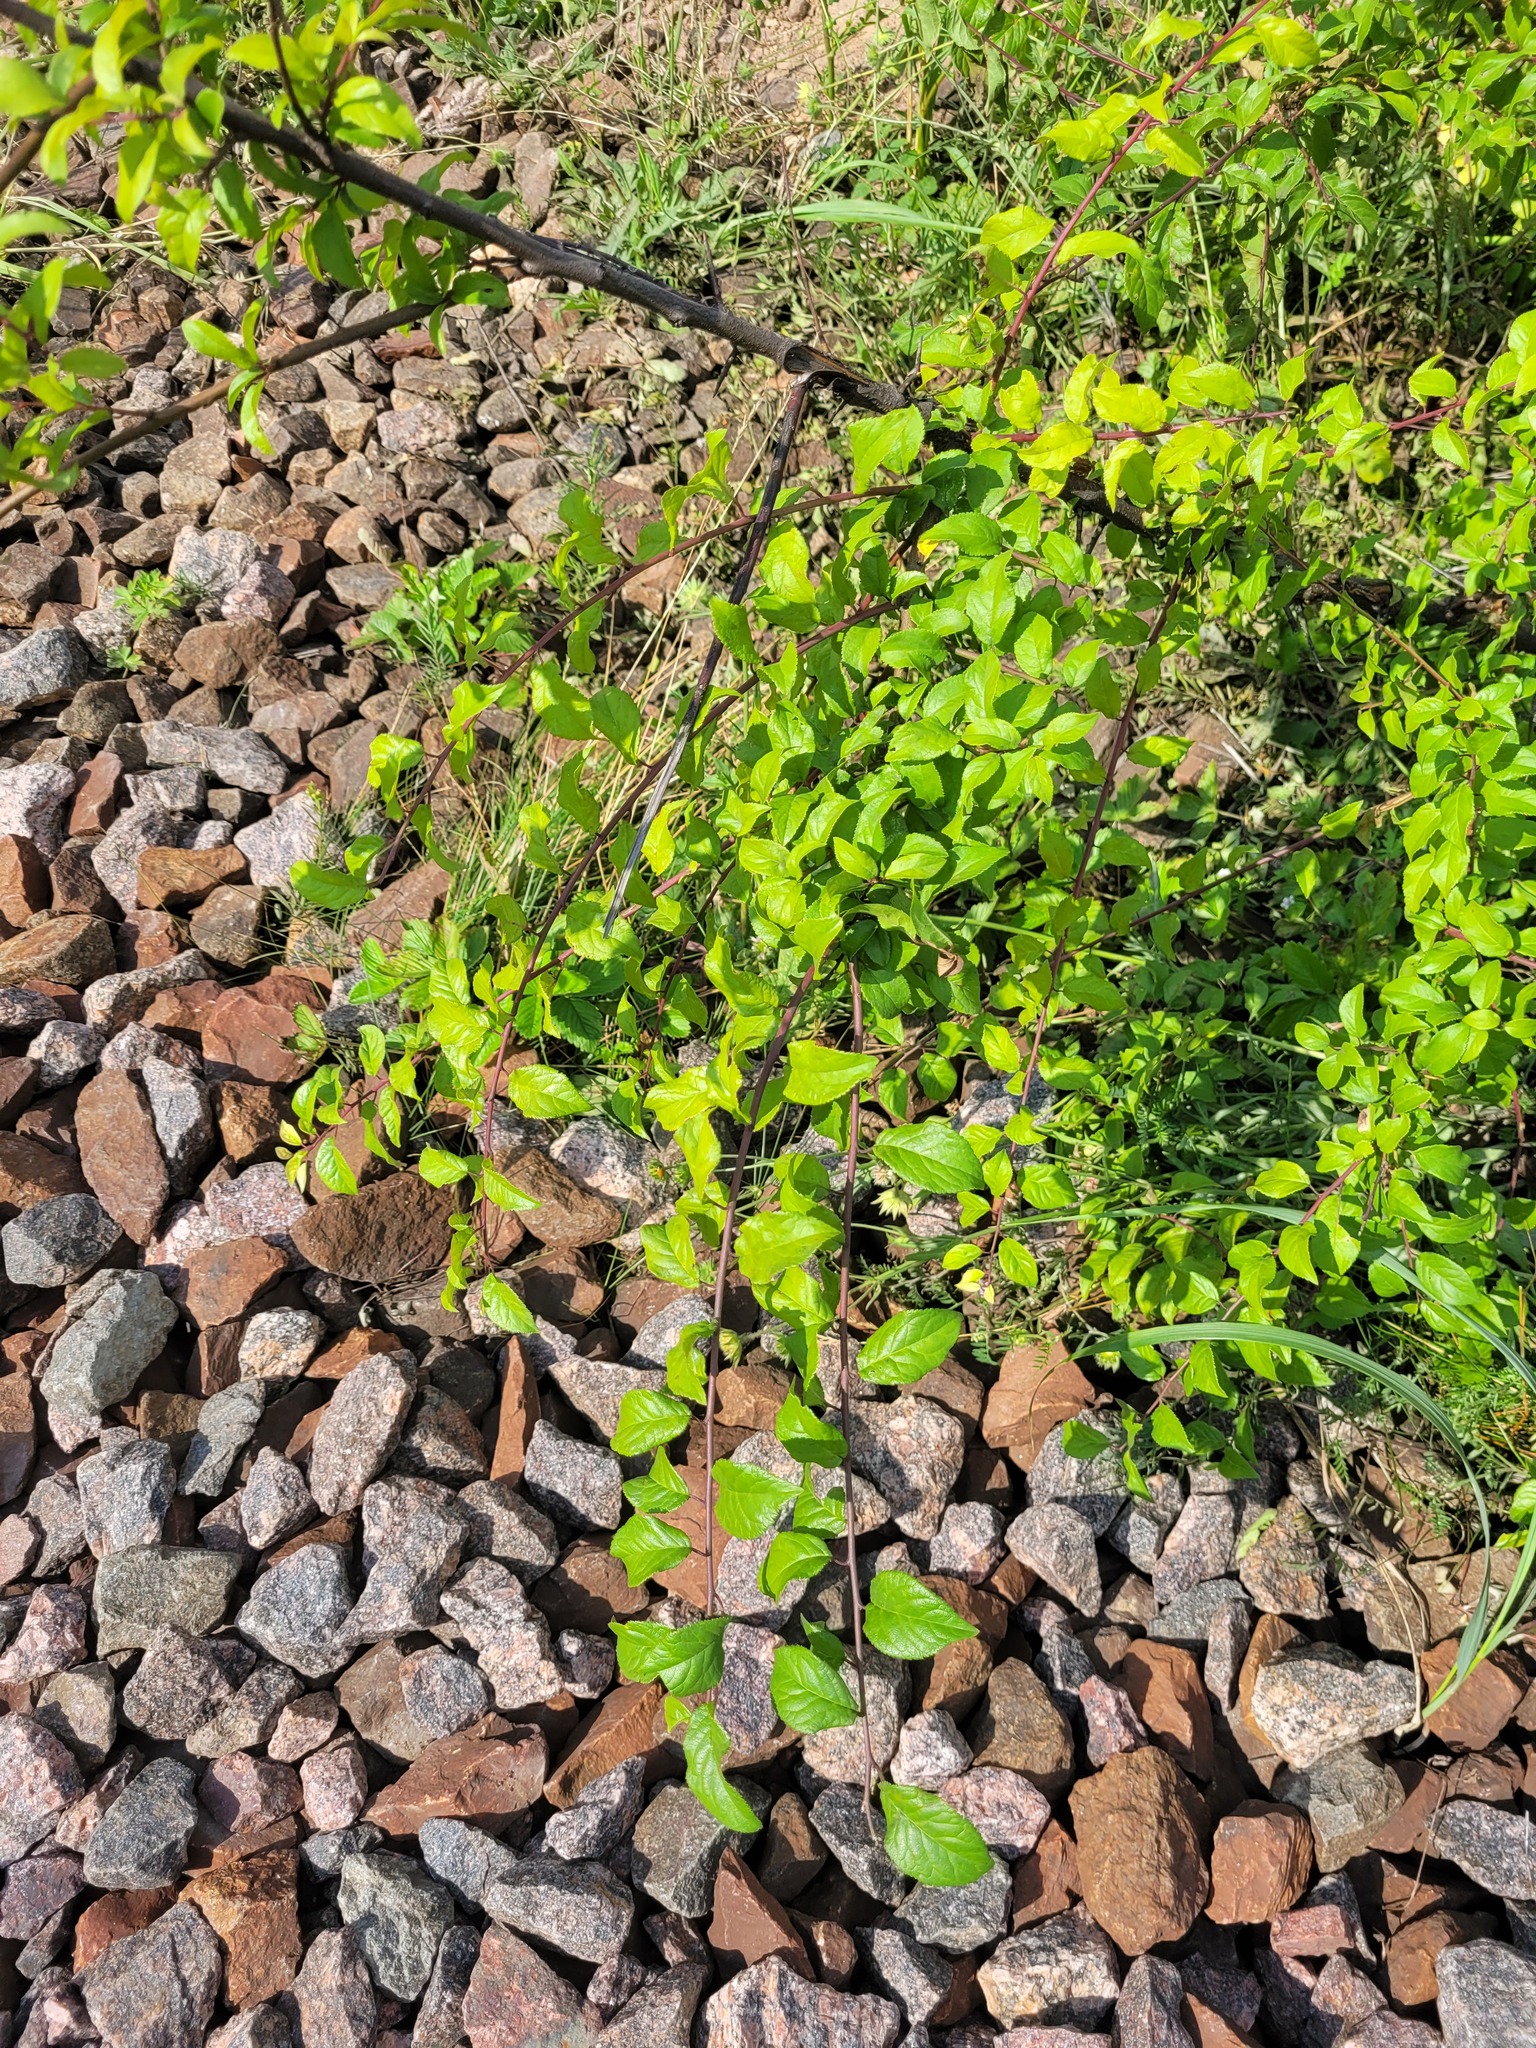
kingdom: Plantae
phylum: Tracheophyta
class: Magnoliopsida
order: Rosales
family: Rosaceae
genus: Prunus
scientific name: Prunus cerasifera
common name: Cherry plum
